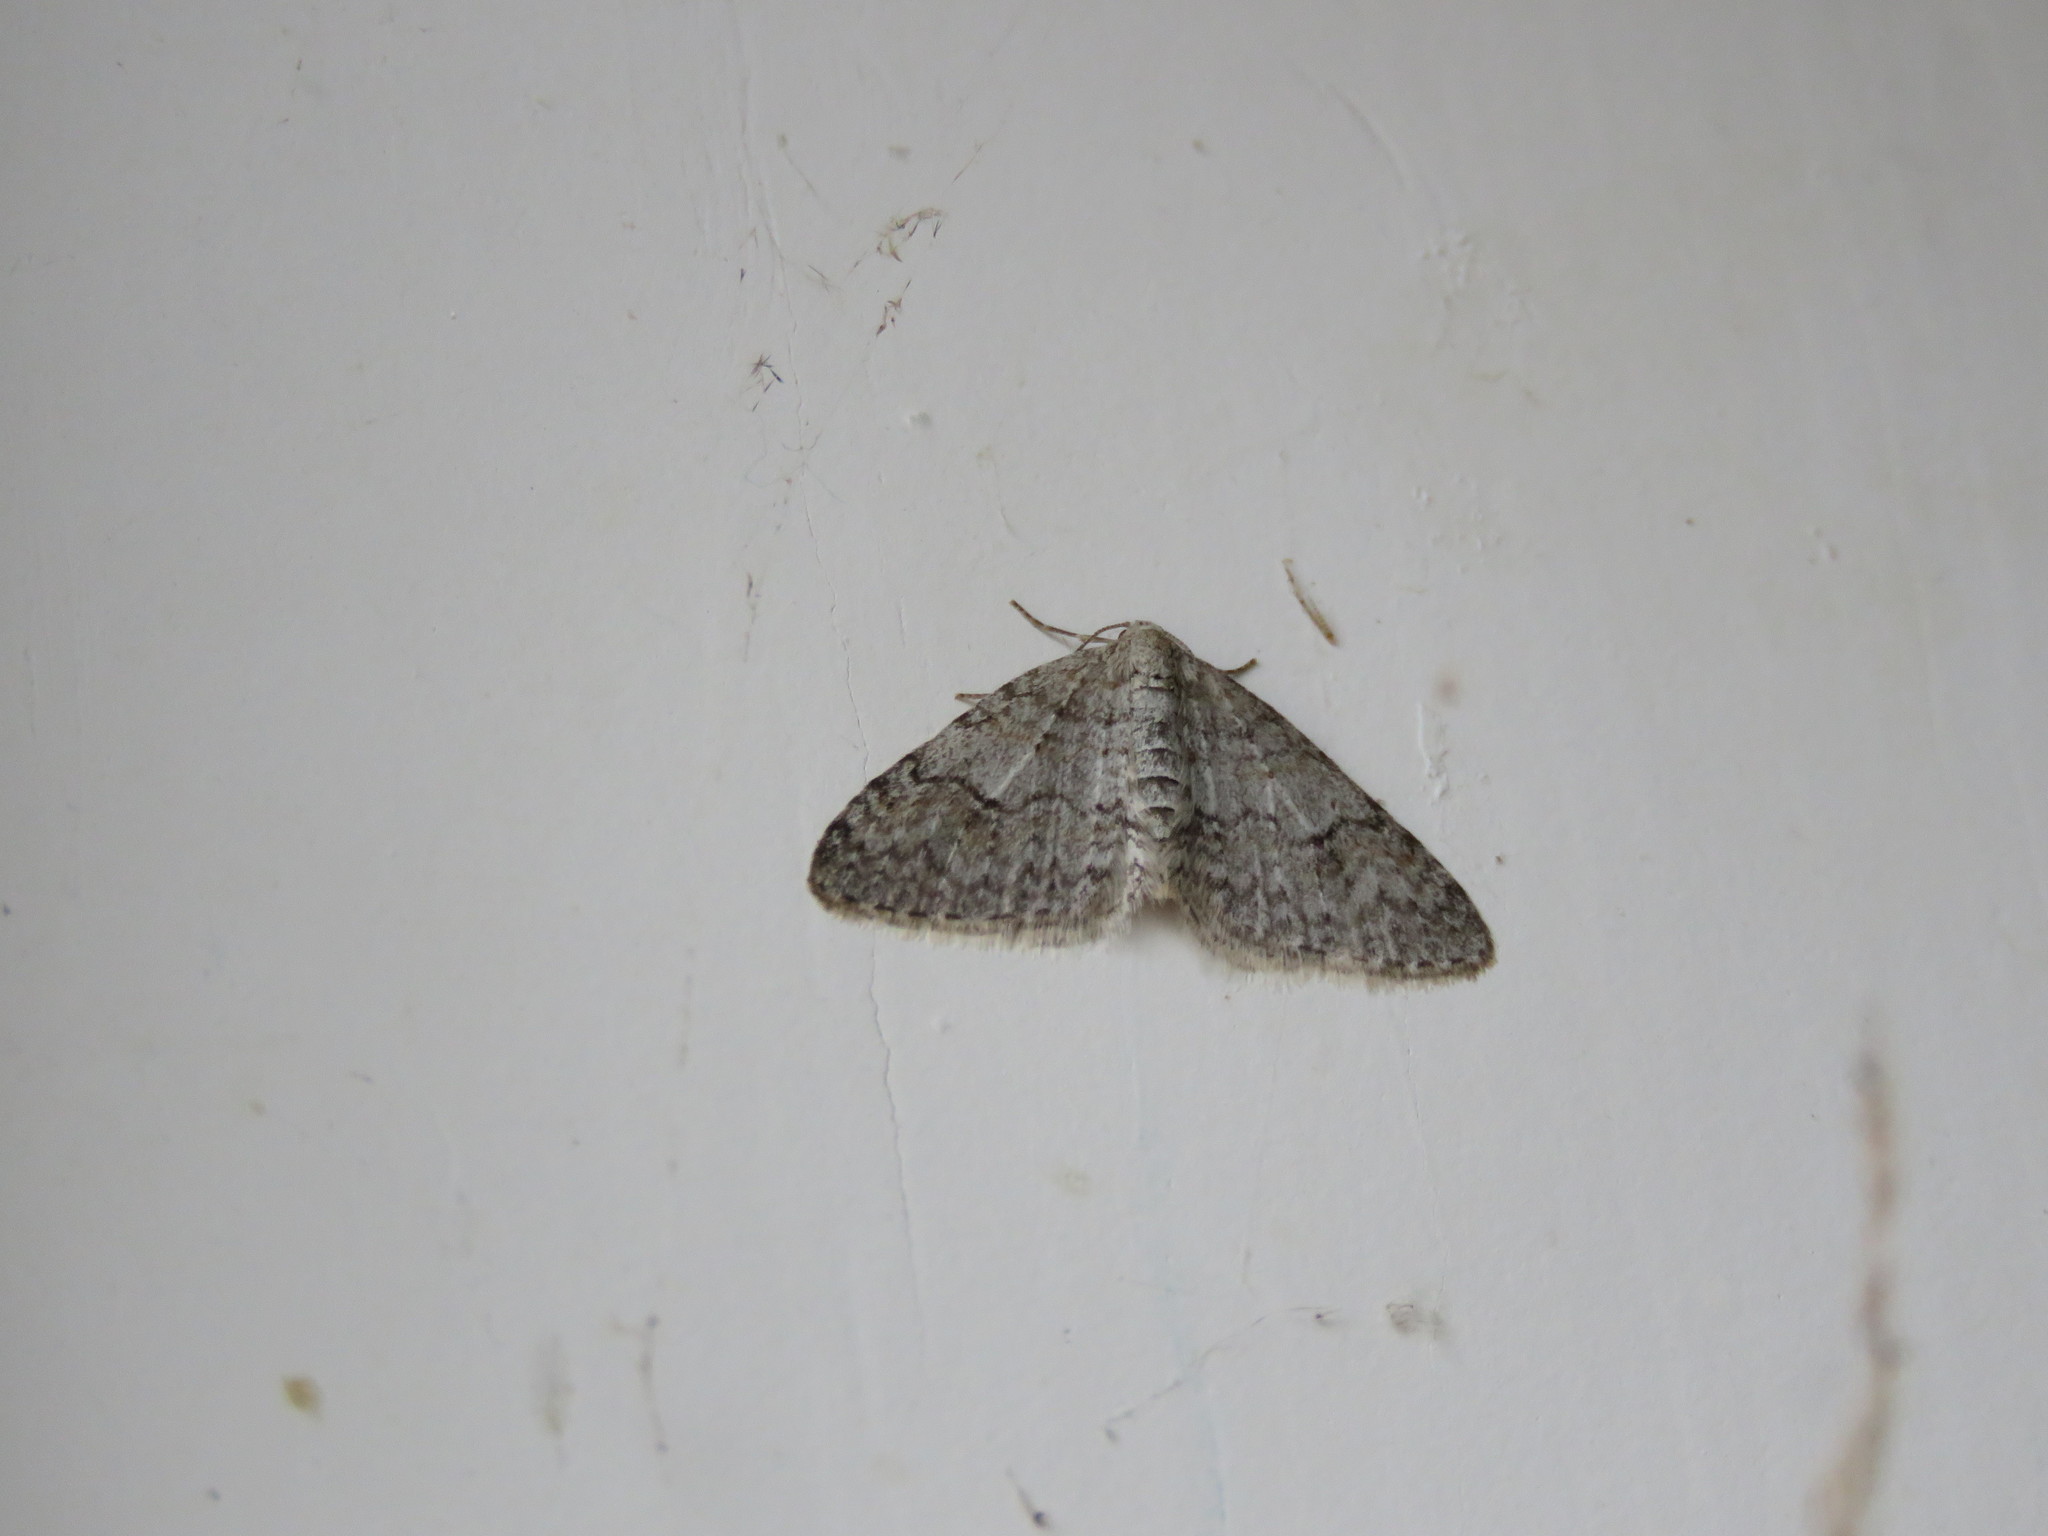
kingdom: Animalia
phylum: Arthropoda
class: Insecta
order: Lepidoptera
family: Geometridae
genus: Venusia
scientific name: Venusia comptaria
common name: Brown-shaded carpet
